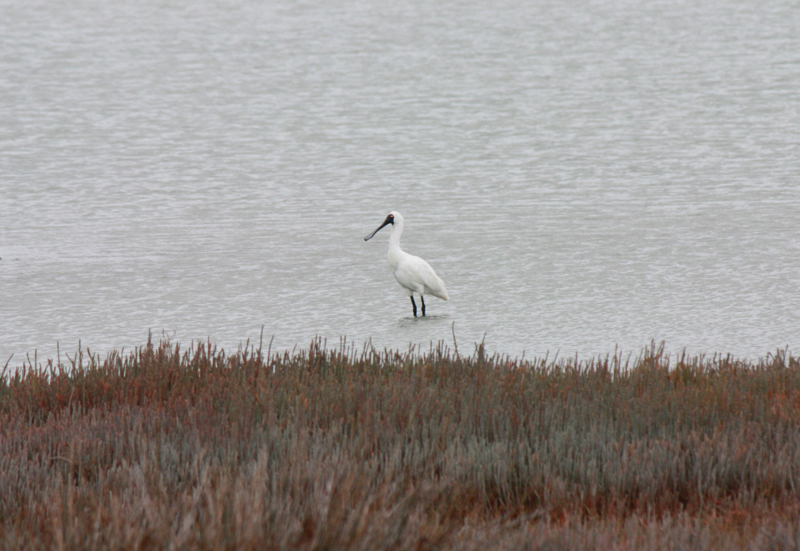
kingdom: Animalia
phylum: Chordata
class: Aves
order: Pelecaniformes
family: Threskiornithidae
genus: Platalea
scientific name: Platalea regia
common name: Royal spoonbill
